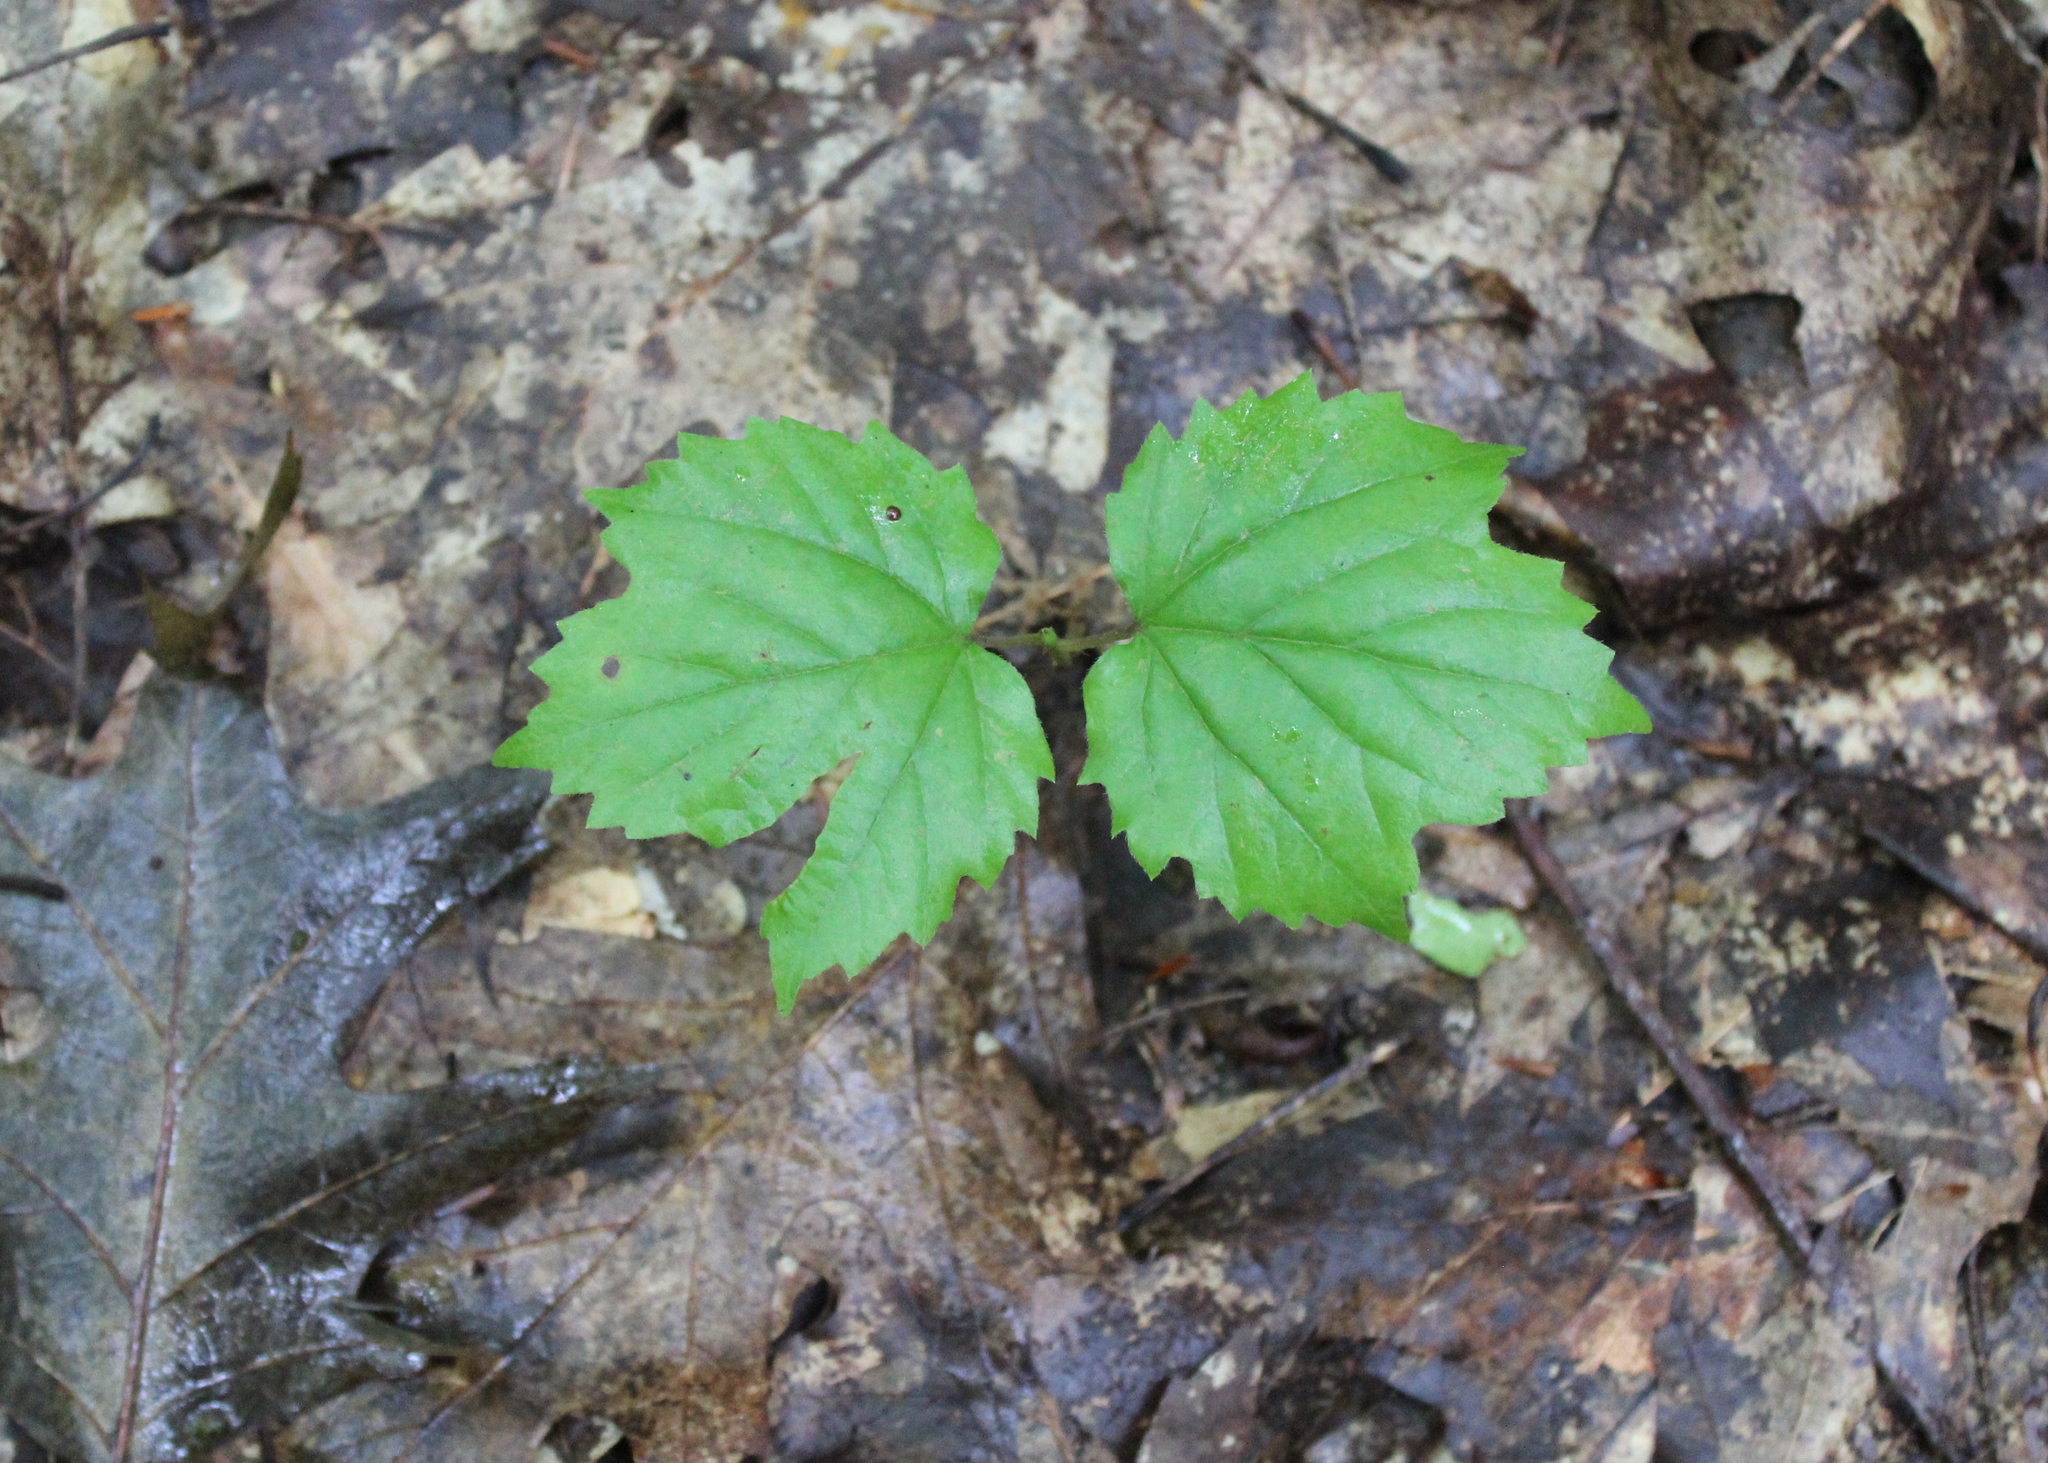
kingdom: Plantae
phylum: Tracheophyta
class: Magnoliopsida
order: Dipsacales
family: Viburnaceae
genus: Viburnum
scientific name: Viburnum acerifolium
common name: Dockmackie
